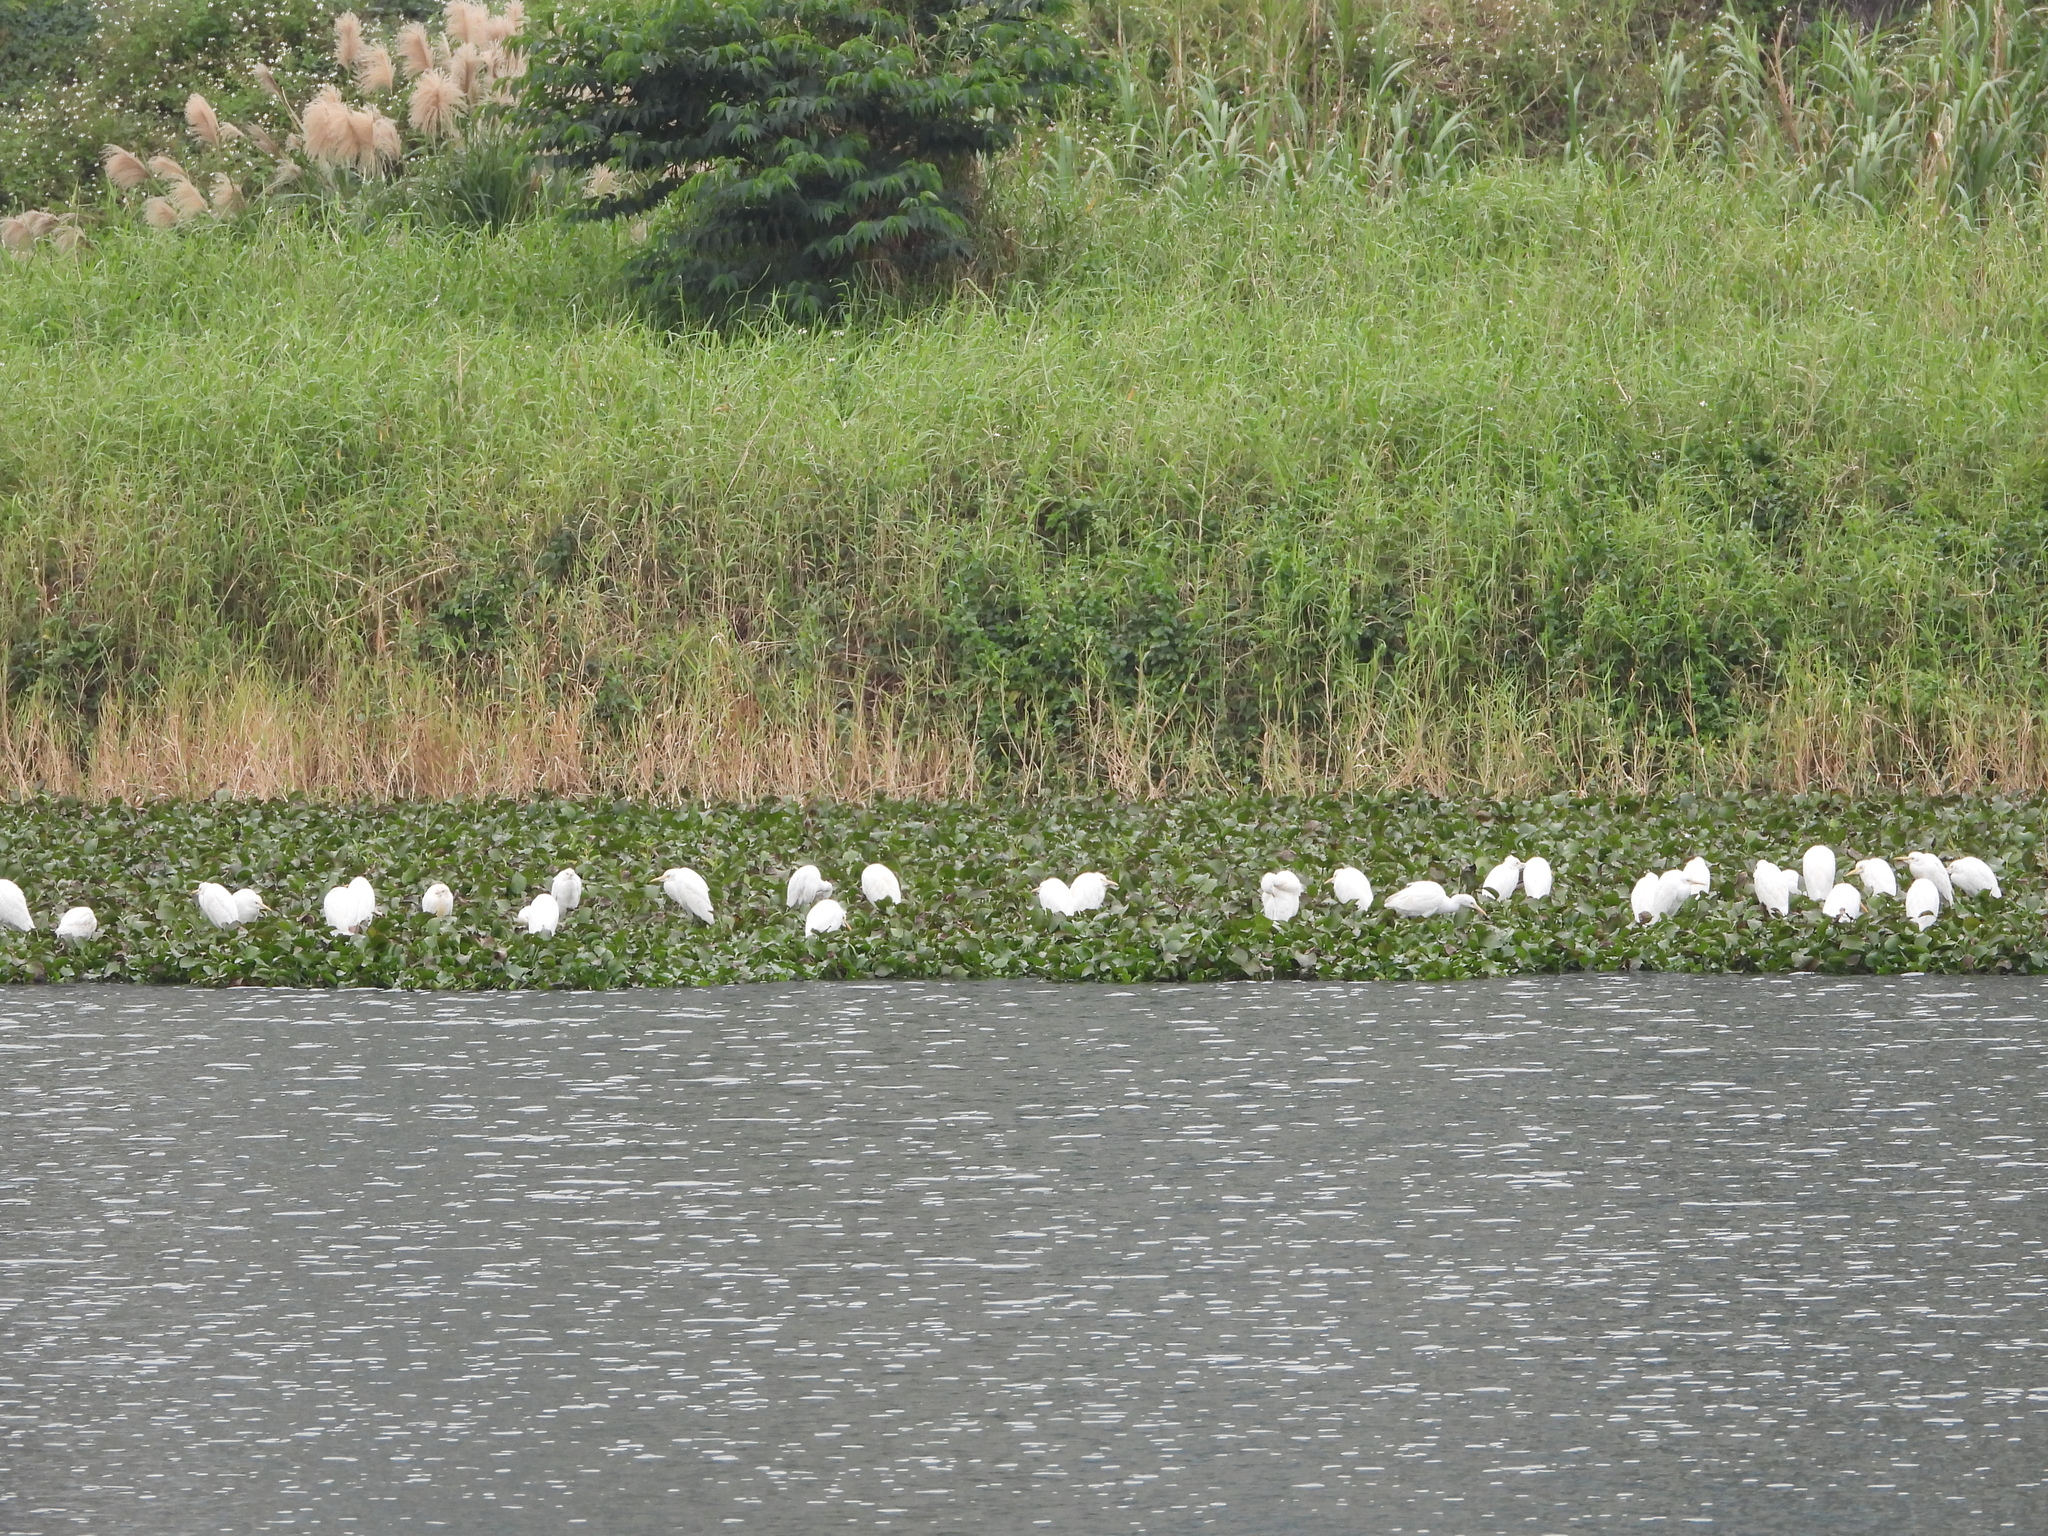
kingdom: Animalia
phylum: Chordata
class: Aves
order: Pelecaniformes
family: Ardeidae
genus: Bubulcus
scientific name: Bubulcus coromandus
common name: Eastern cattle egret
